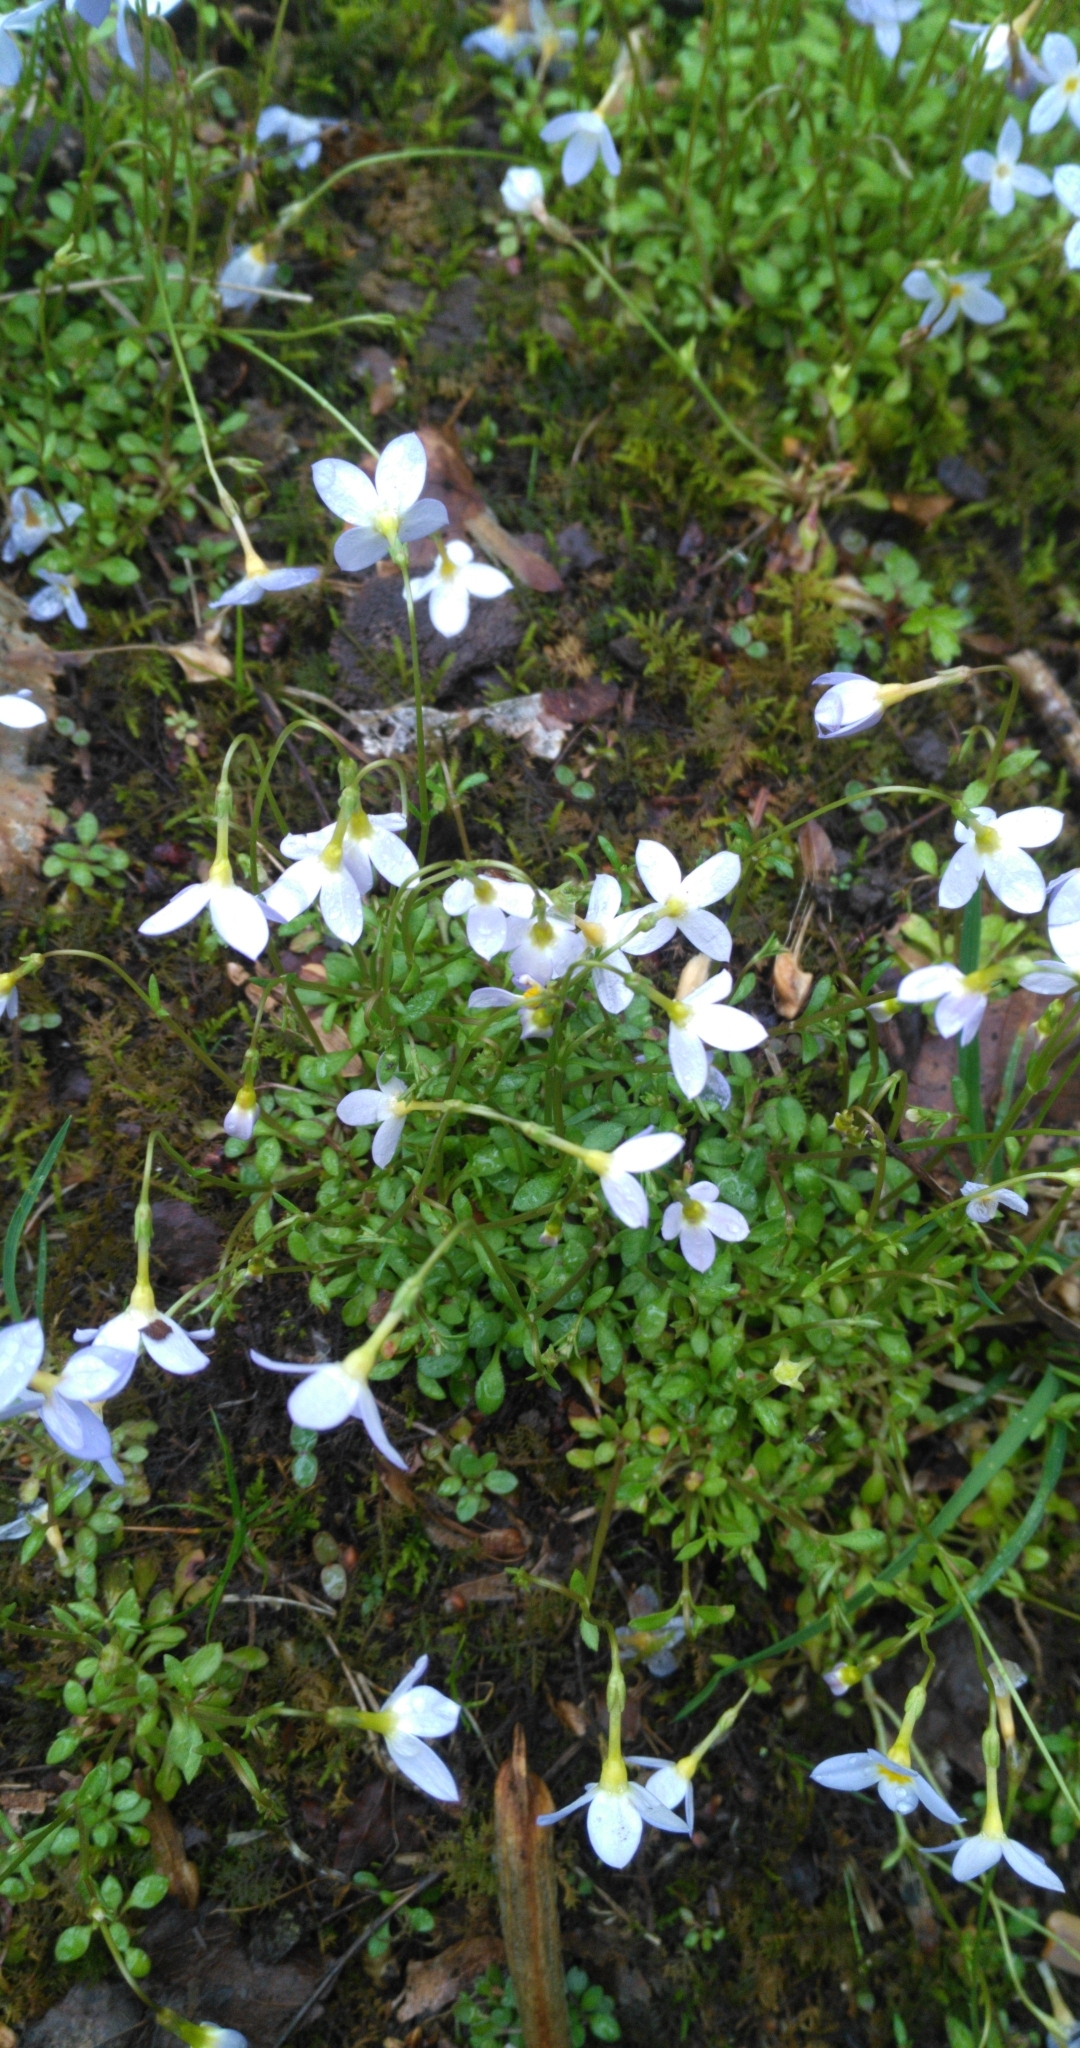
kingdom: Plantae
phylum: Tracheophyta
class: Magnoliopsida
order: Gentianales
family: Rubiaceae
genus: Houstonia
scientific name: Houstonia caerulea
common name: Bluets
